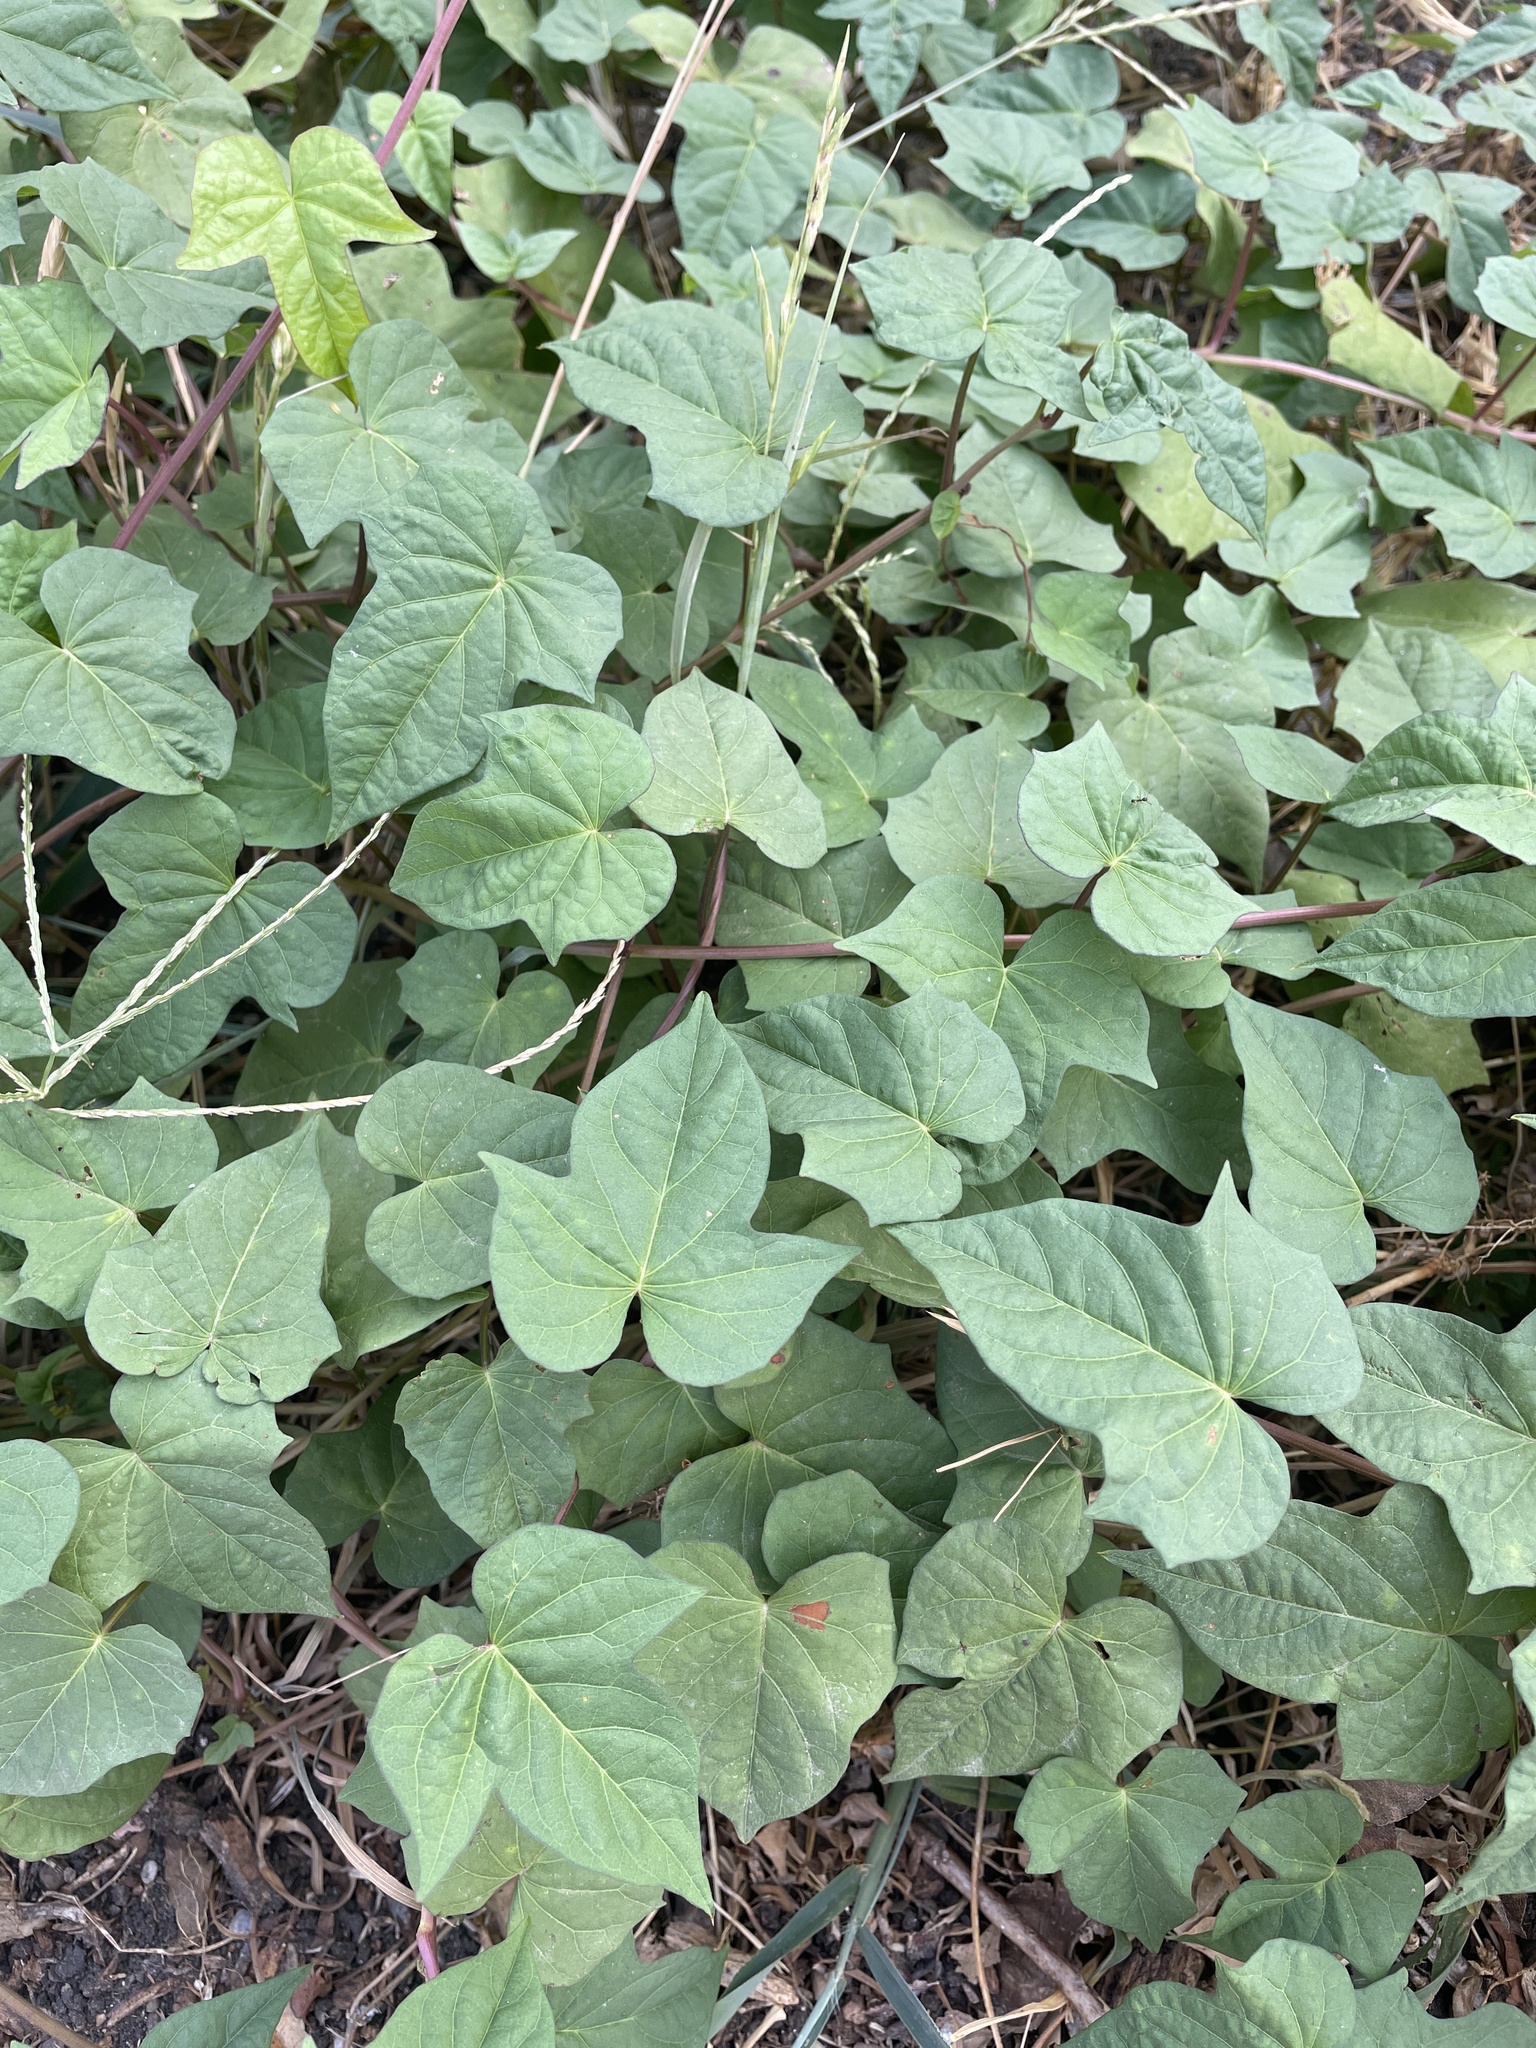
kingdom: Plantae
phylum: Tracheophyta
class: Magnoliopsida
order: Solanales
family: Convolvulaceae
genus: Ipomoea
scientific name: Ipomoea cordatotriloba
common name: Cotton morning glory
